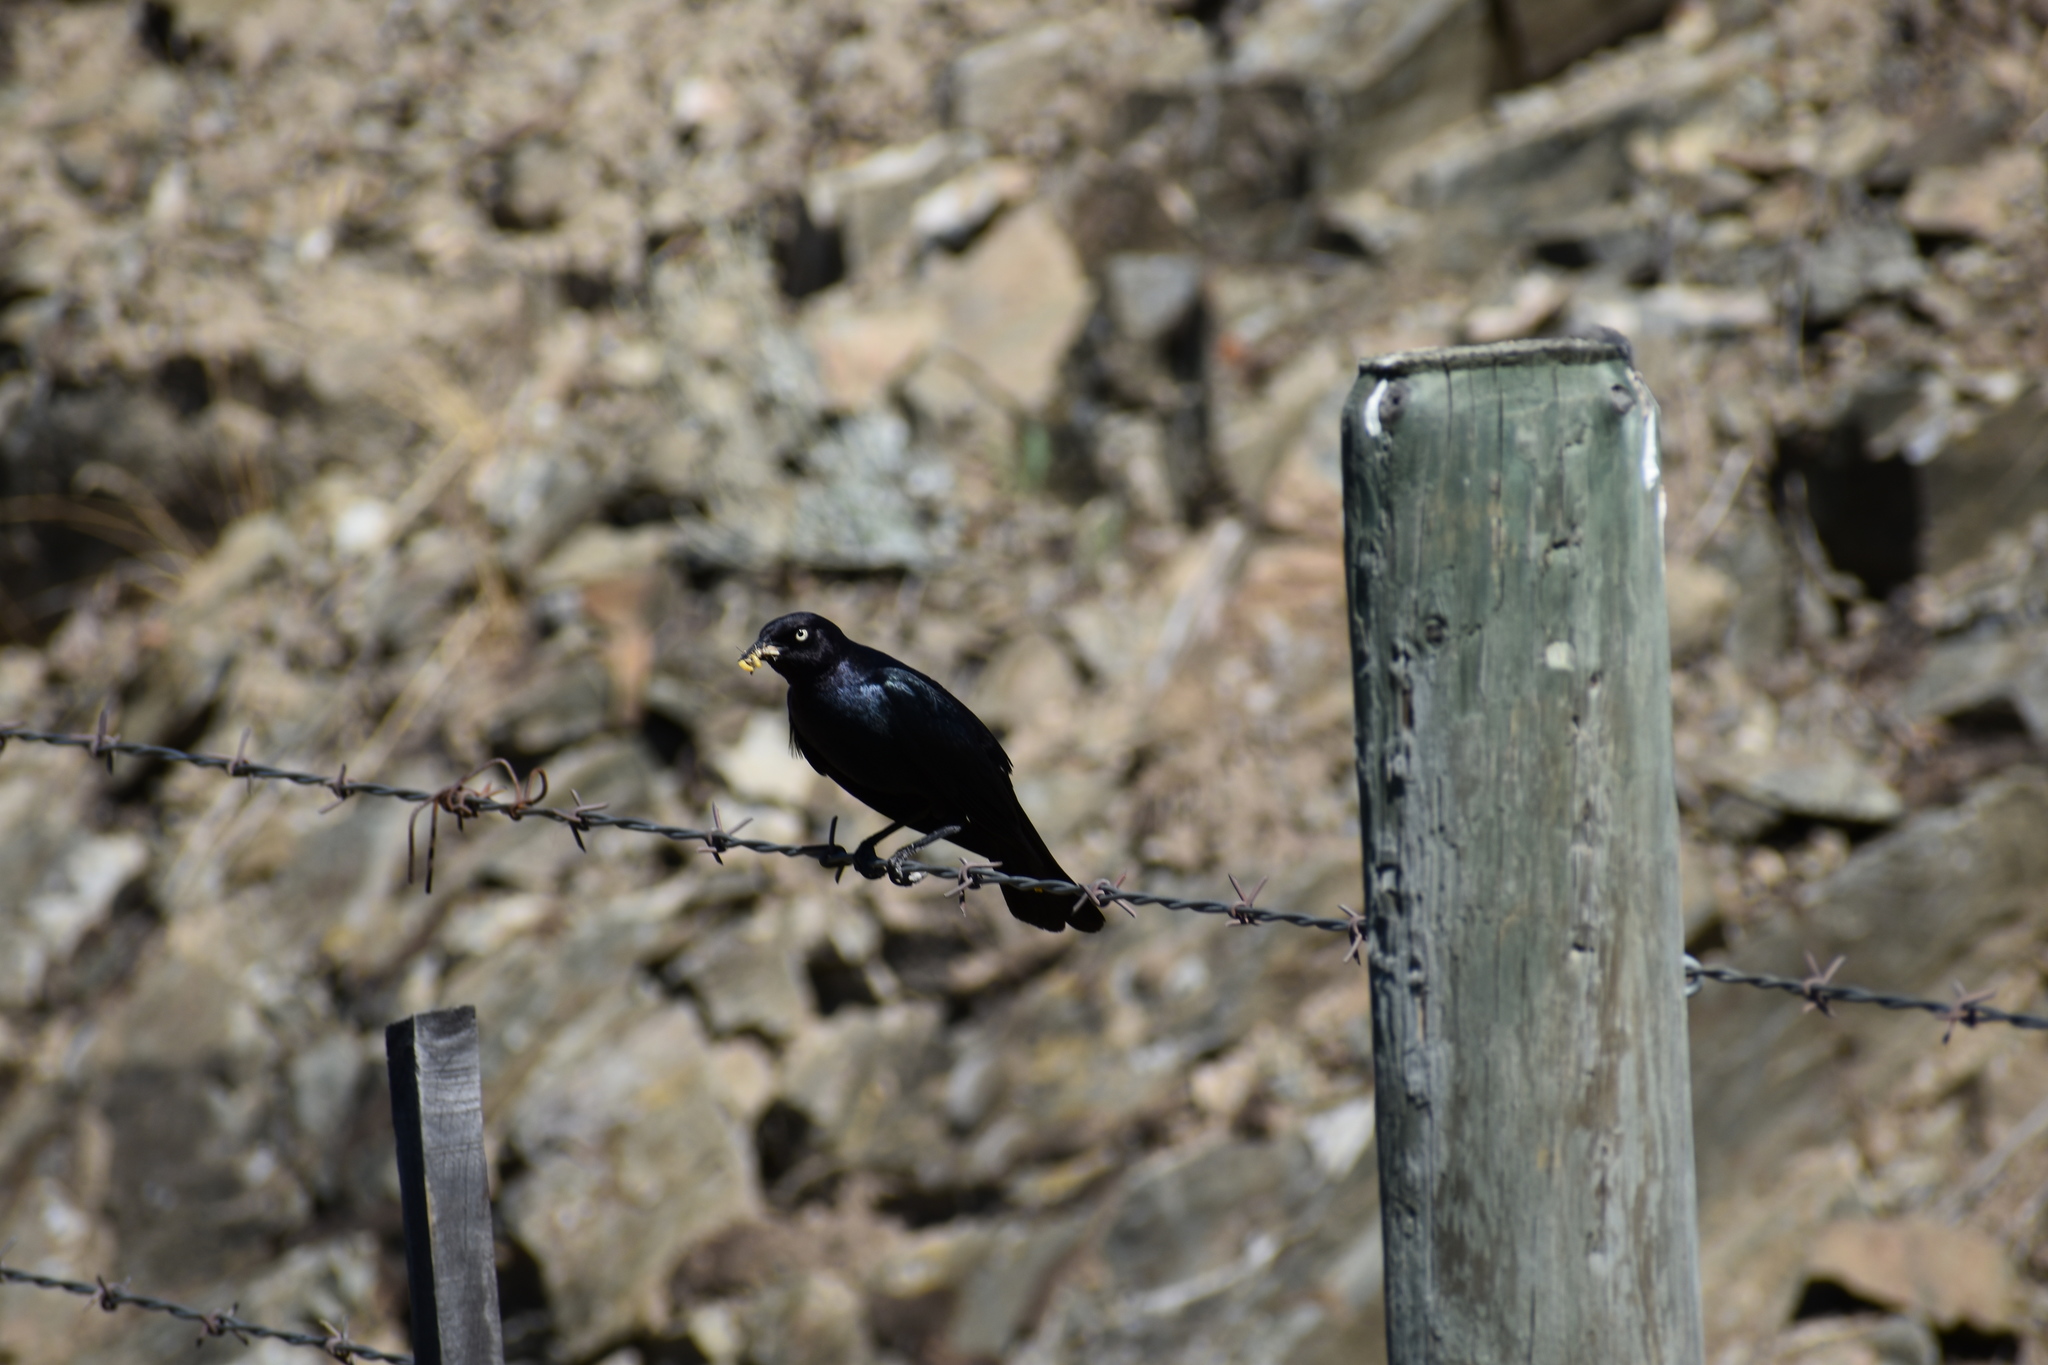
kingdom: Animalia
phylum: Chordata
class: Aves
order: Passeriformes
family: Icteridae
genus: Euphagus
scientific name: Euphagus cyanocephalus
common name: Brewer's blackbird
